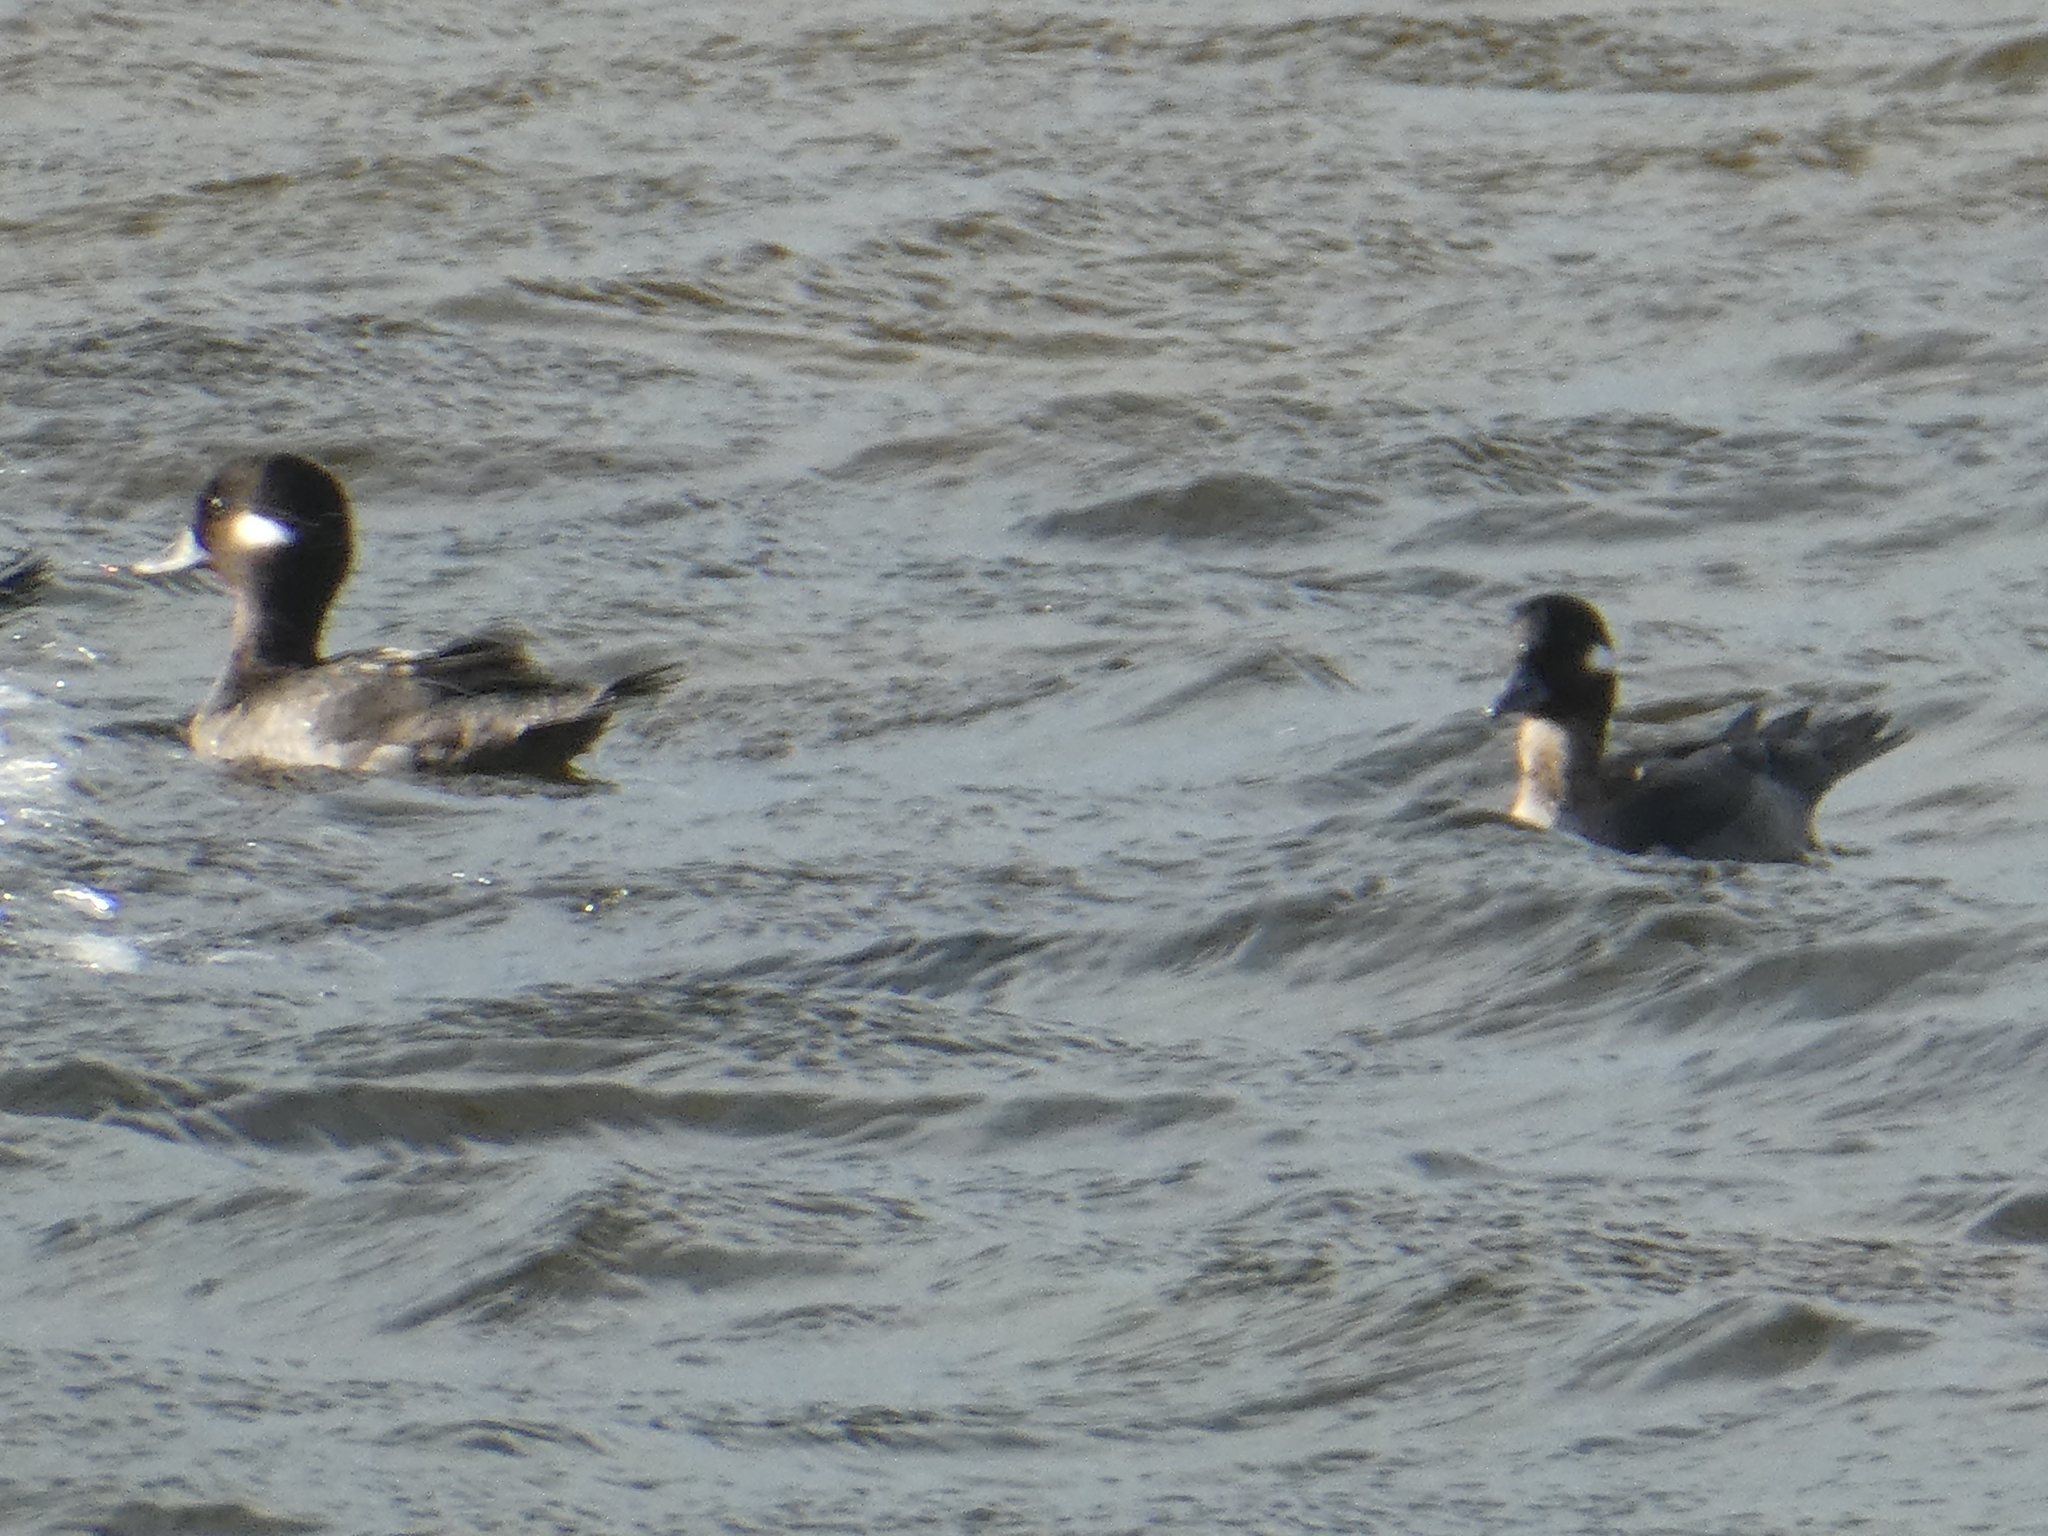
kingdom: Animalia
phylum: Chordata
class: Aves
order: Anseriformes
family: Anatidae
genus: Bucephala
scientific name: Bucephala albeola
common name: Bufflehead
